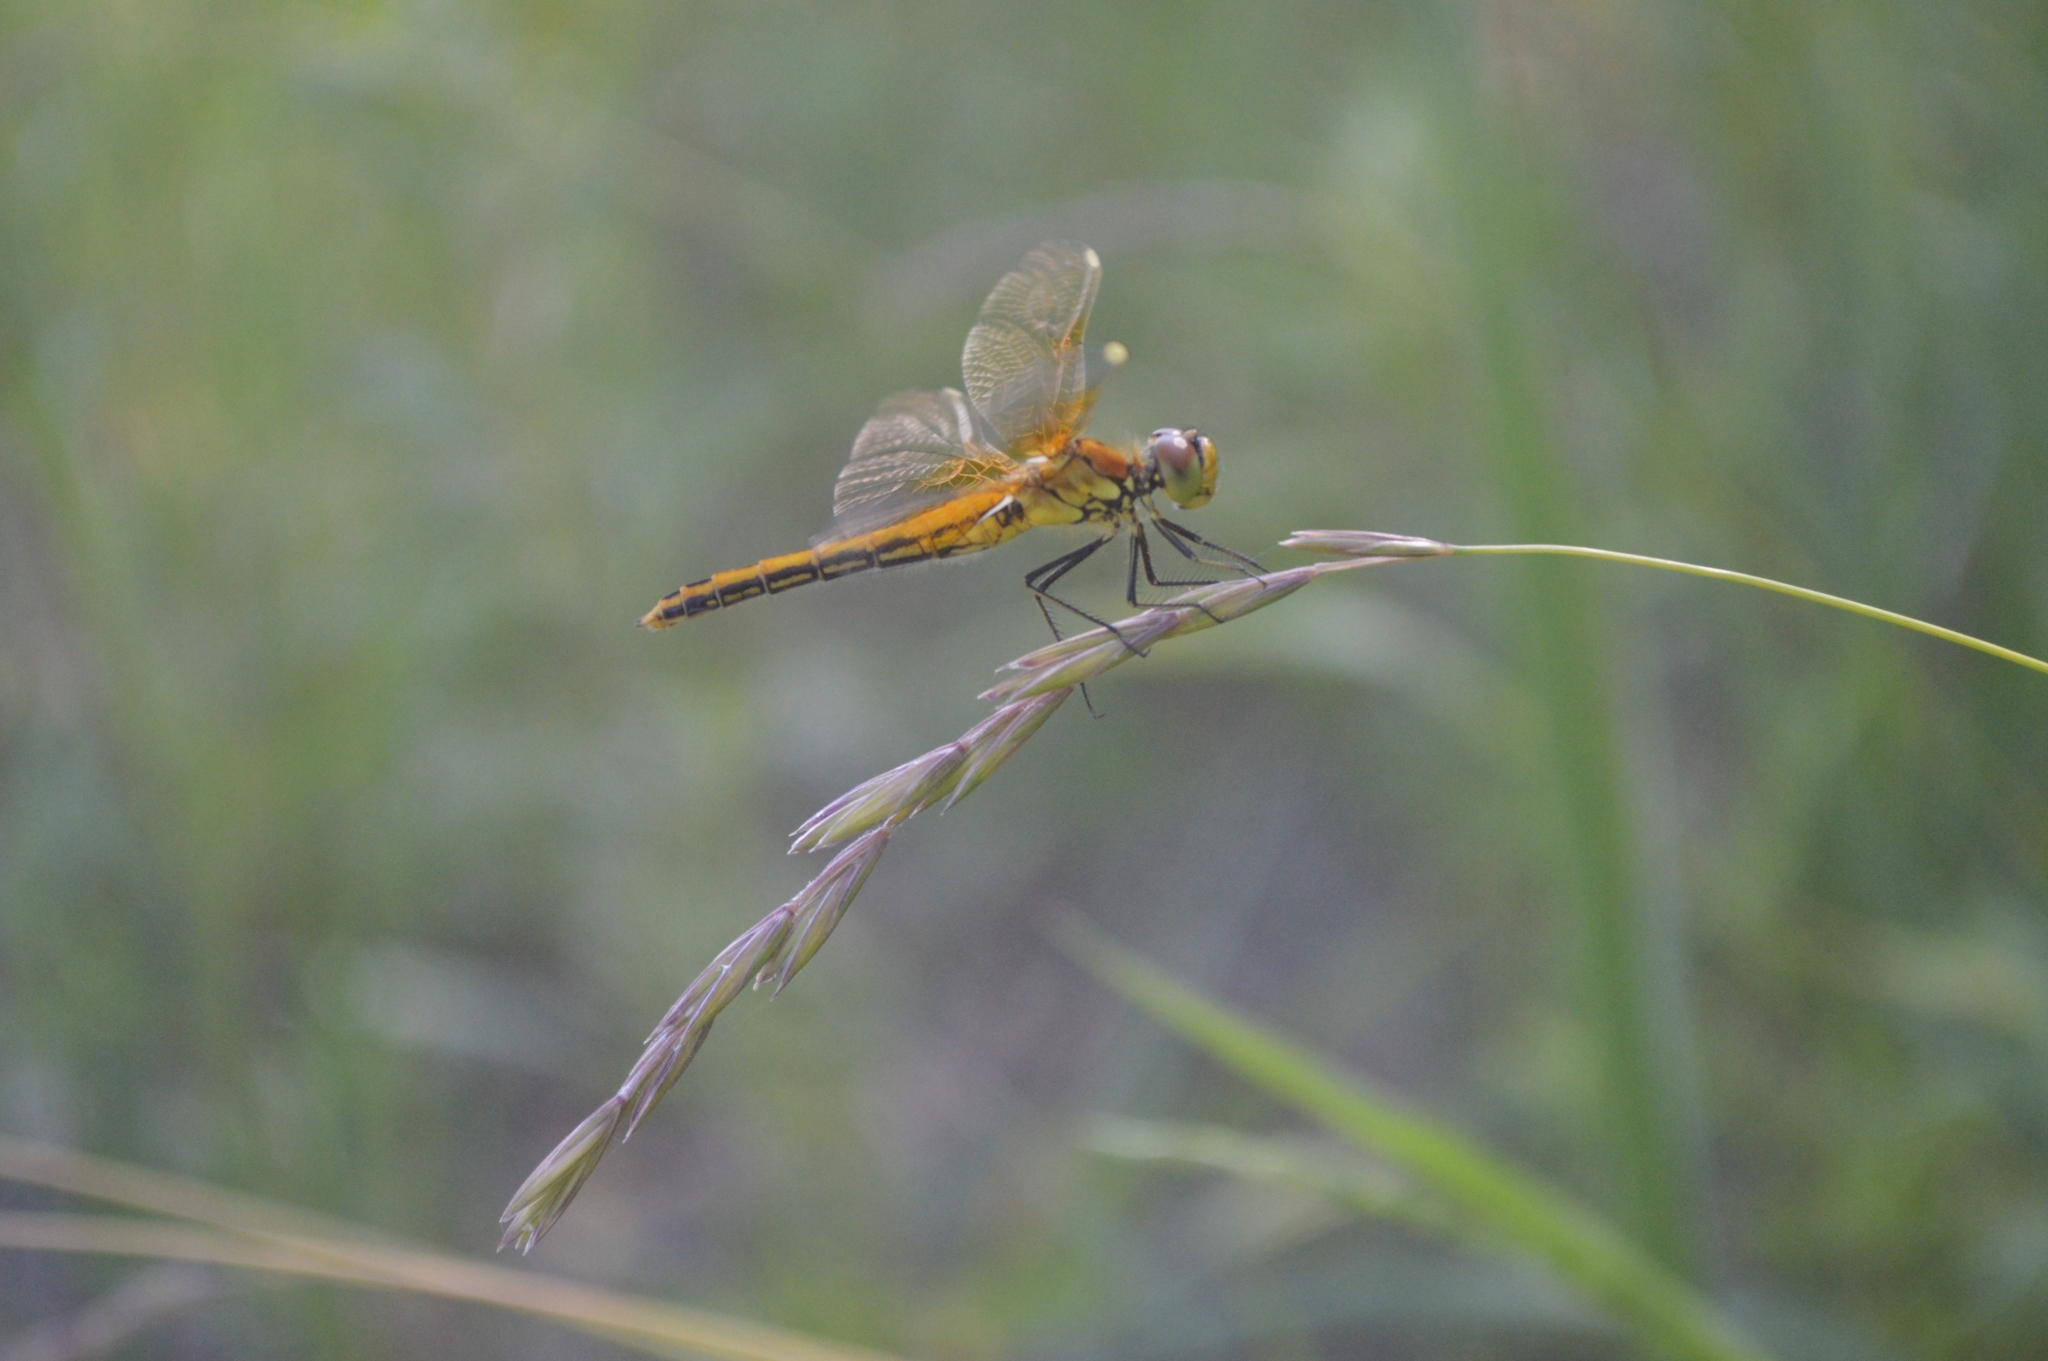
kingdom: Animalia
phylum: Arthropoda
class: Insecta
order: Odonata
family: Libellulidae
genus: Sympetrum
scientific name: Sympetrum flaveolum
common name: Yellow-winged darter
